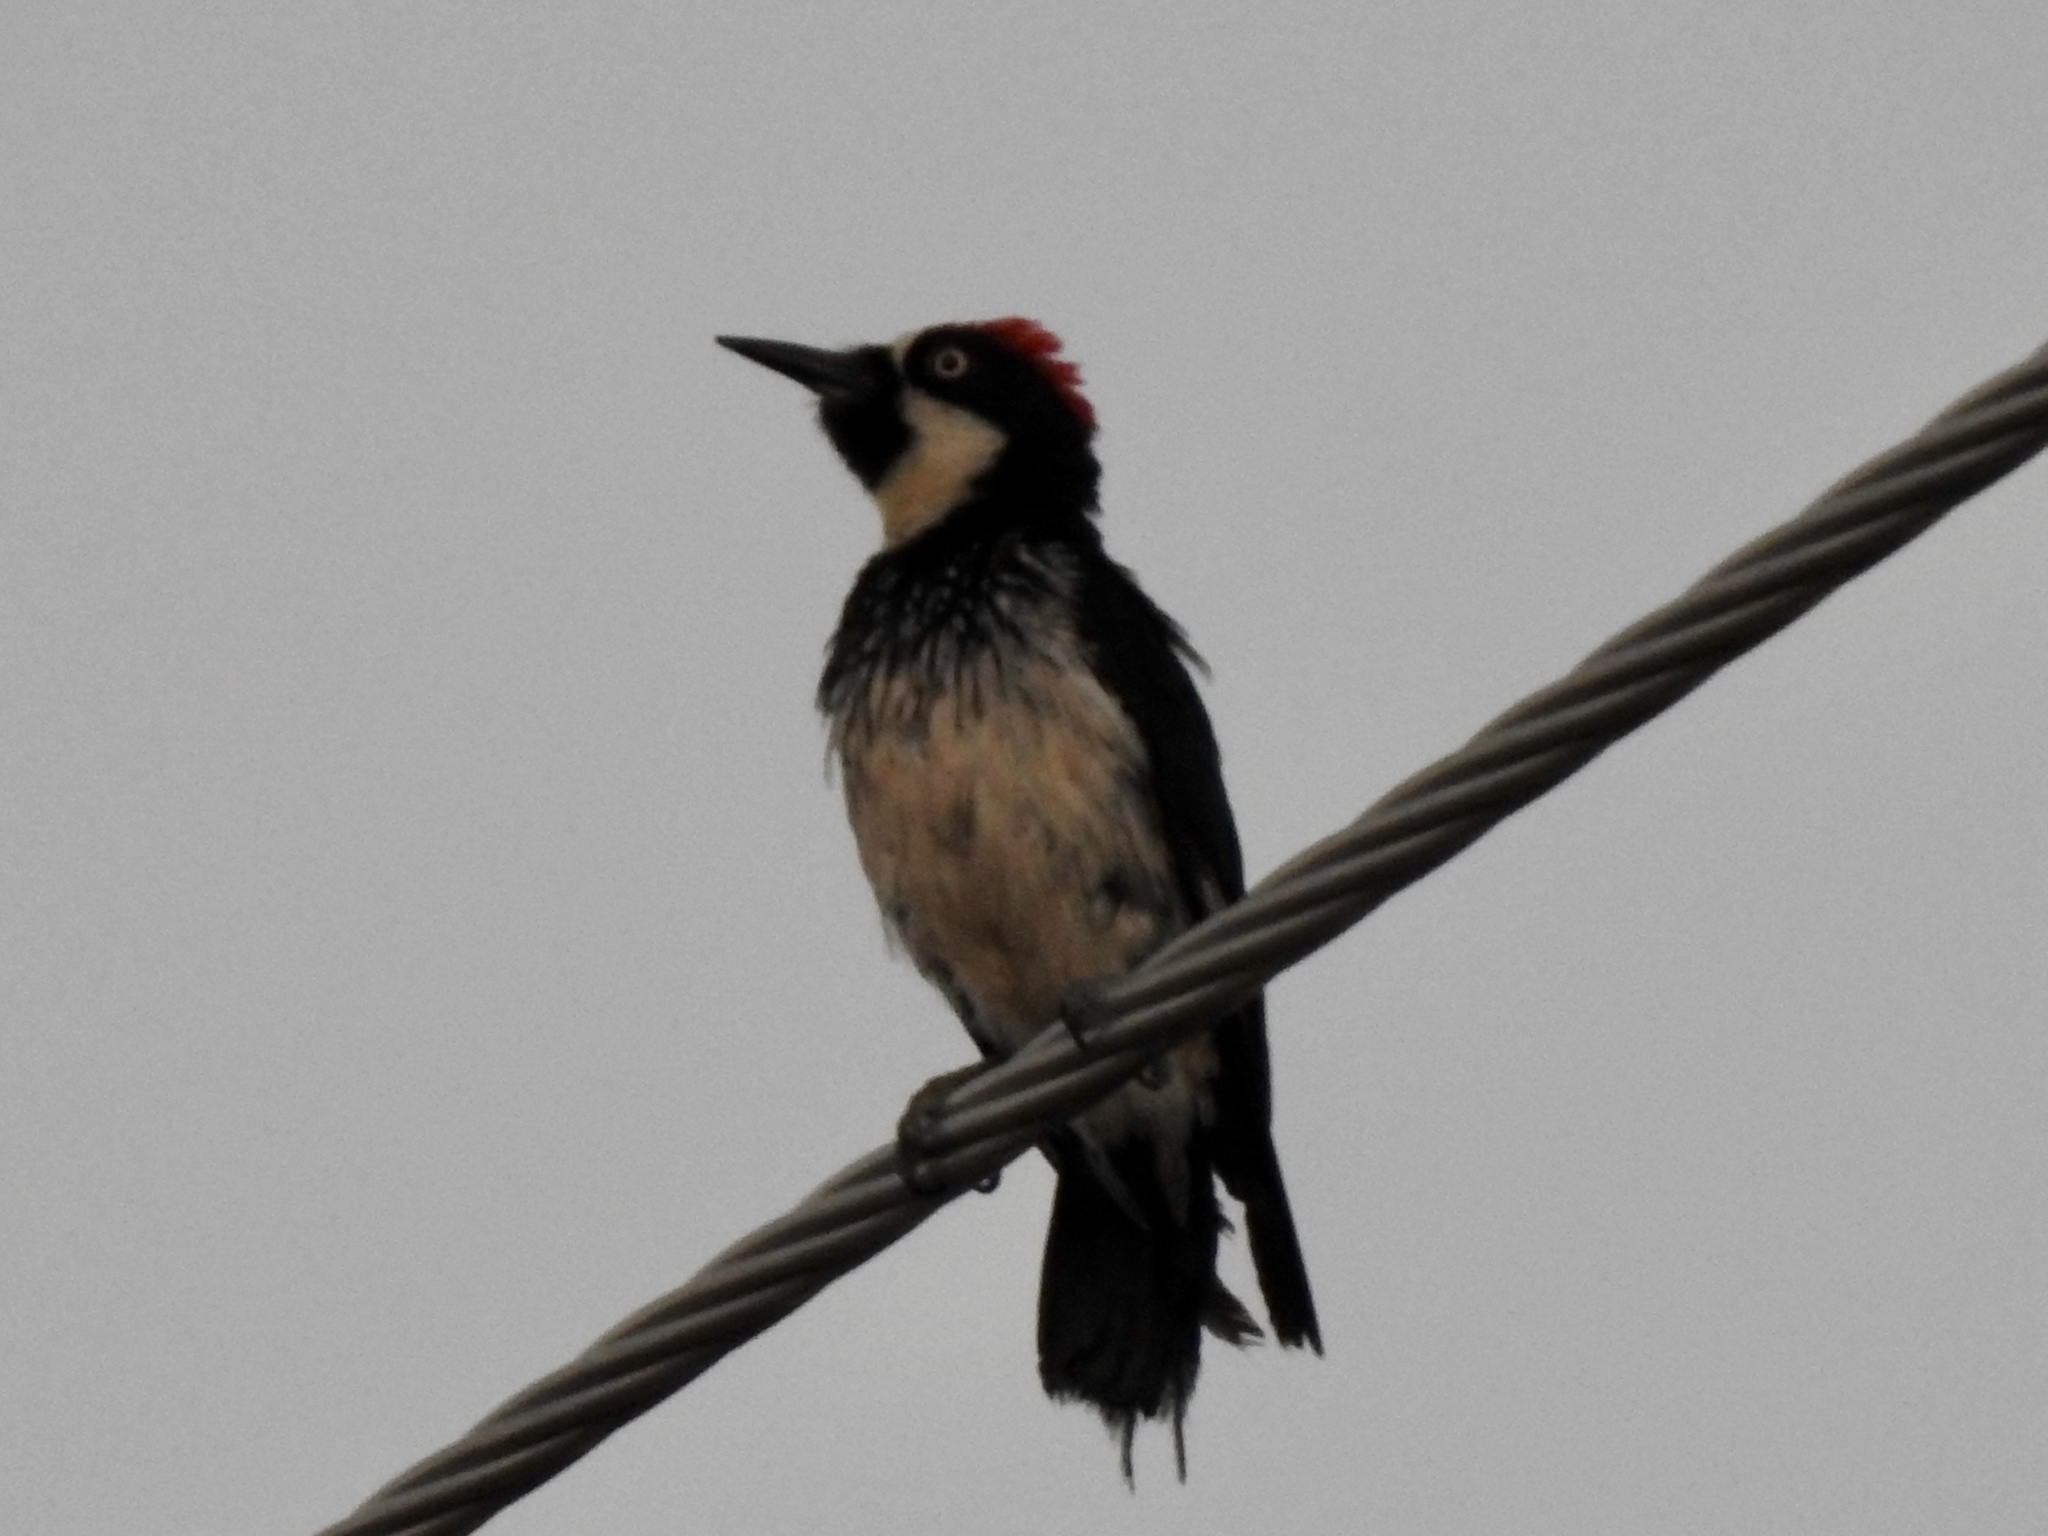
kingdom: Animalia
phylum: Chordata
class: Aves
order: Piciformes
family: Picidae
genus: Melanerpes
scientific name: Melanerpes formicivorus
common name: Acorn woodpecker
